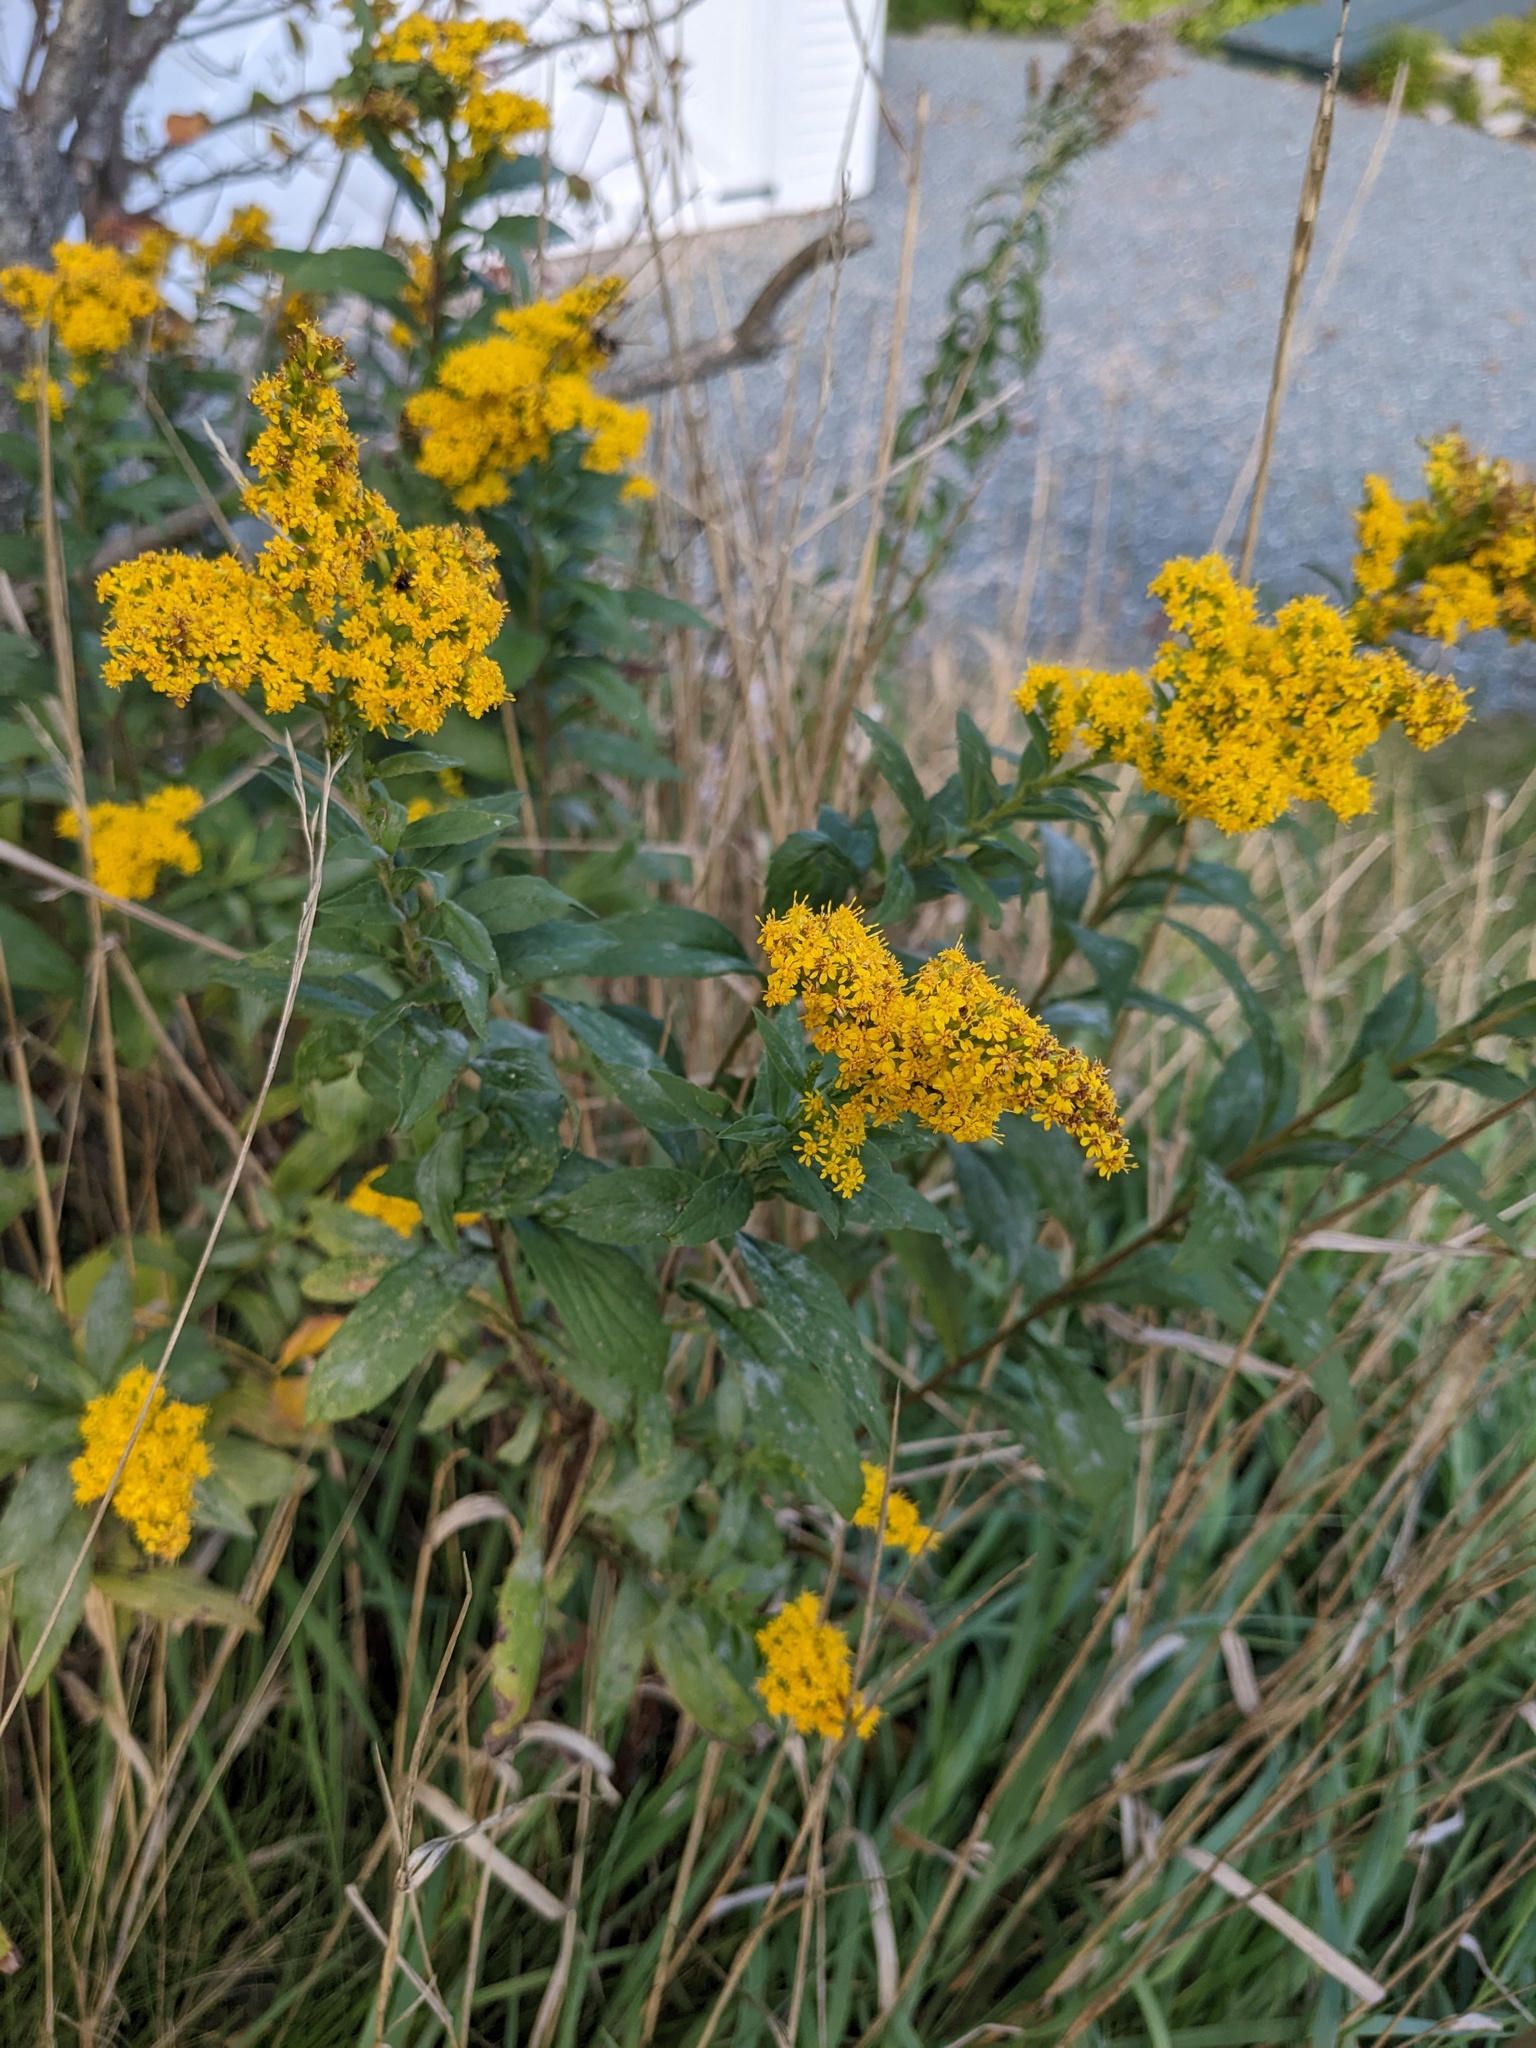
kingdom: Plantae
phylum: Tracheophyta
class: Magnoliopsida
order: Asterales
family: Asteraceae
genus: Solidago
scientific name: Solidago rugosa
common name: Rough-stemmed goldenrod
